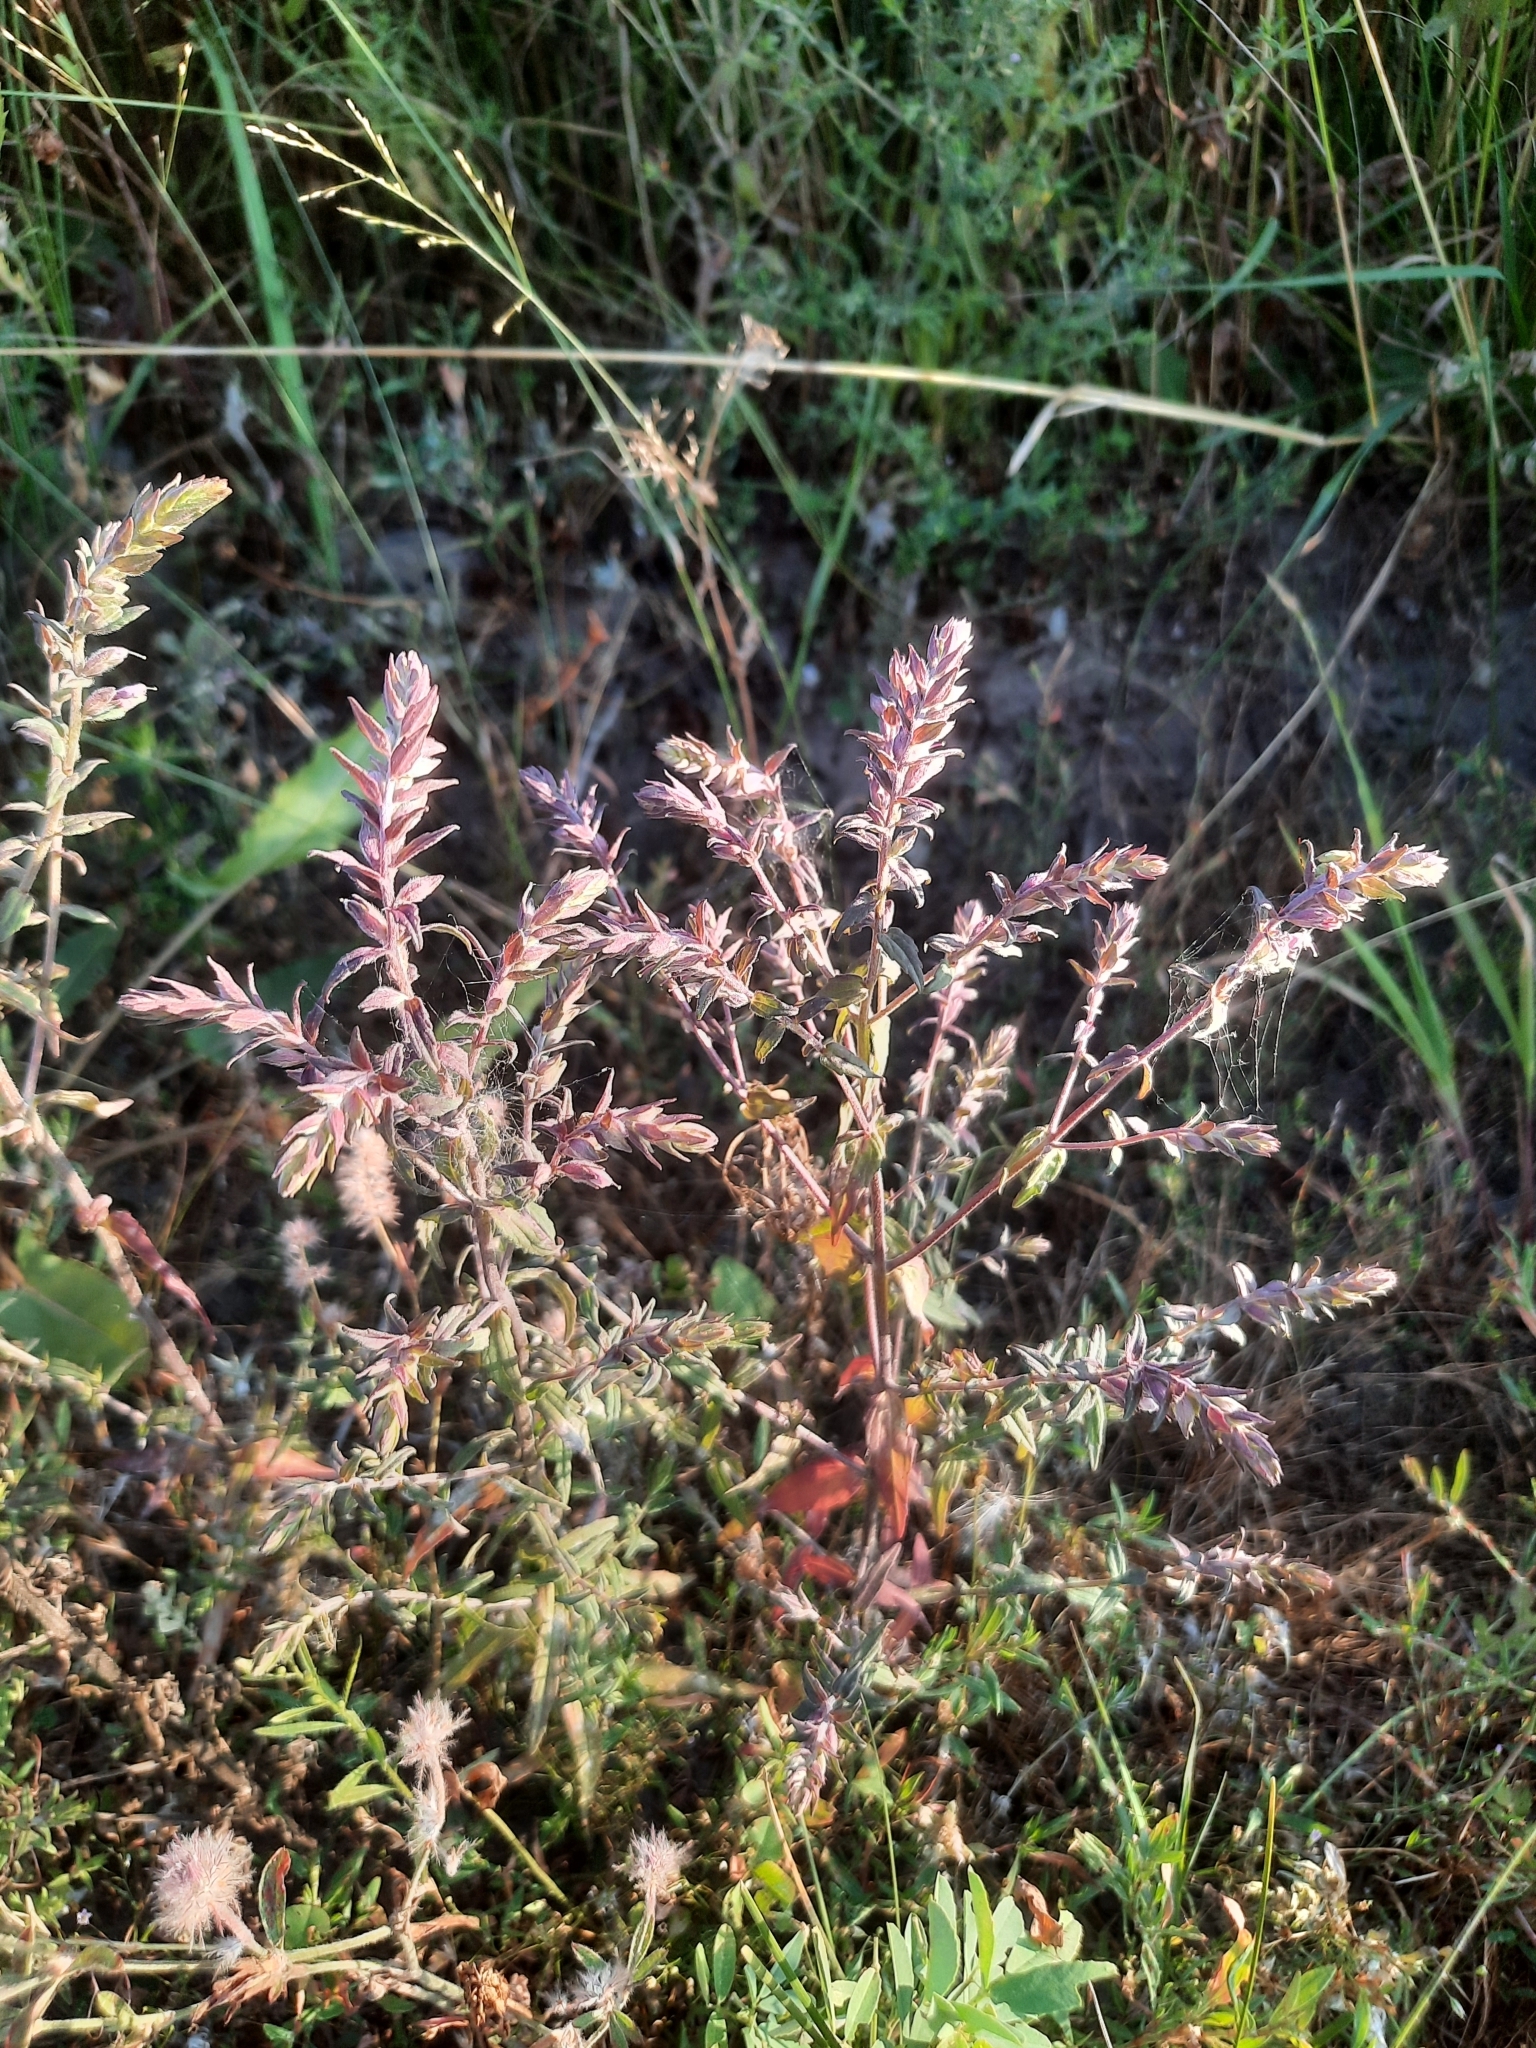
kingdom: Plantae
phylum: Tracheophyta
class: Magnoliopsida
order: Lamiales
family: Orobanchaceae
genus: Odontites
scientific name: Odontites vulgaris
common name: Broomrape
